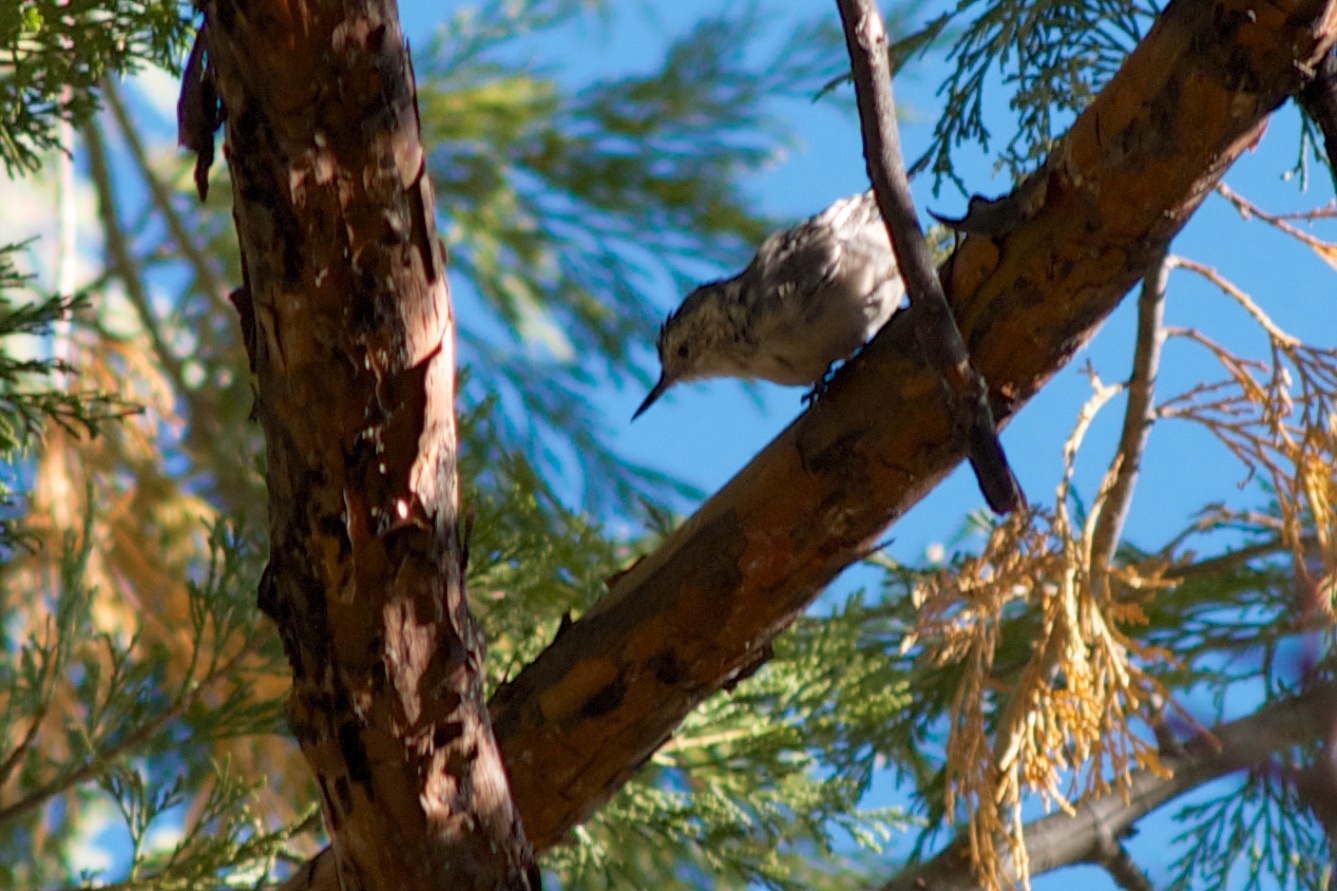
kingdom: Animalia
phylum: Chordata
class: Aves
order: Passeriformes
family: Sittidae
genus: Sitta
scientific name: Sitta carolinensis
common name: White-breasted nuthatch
